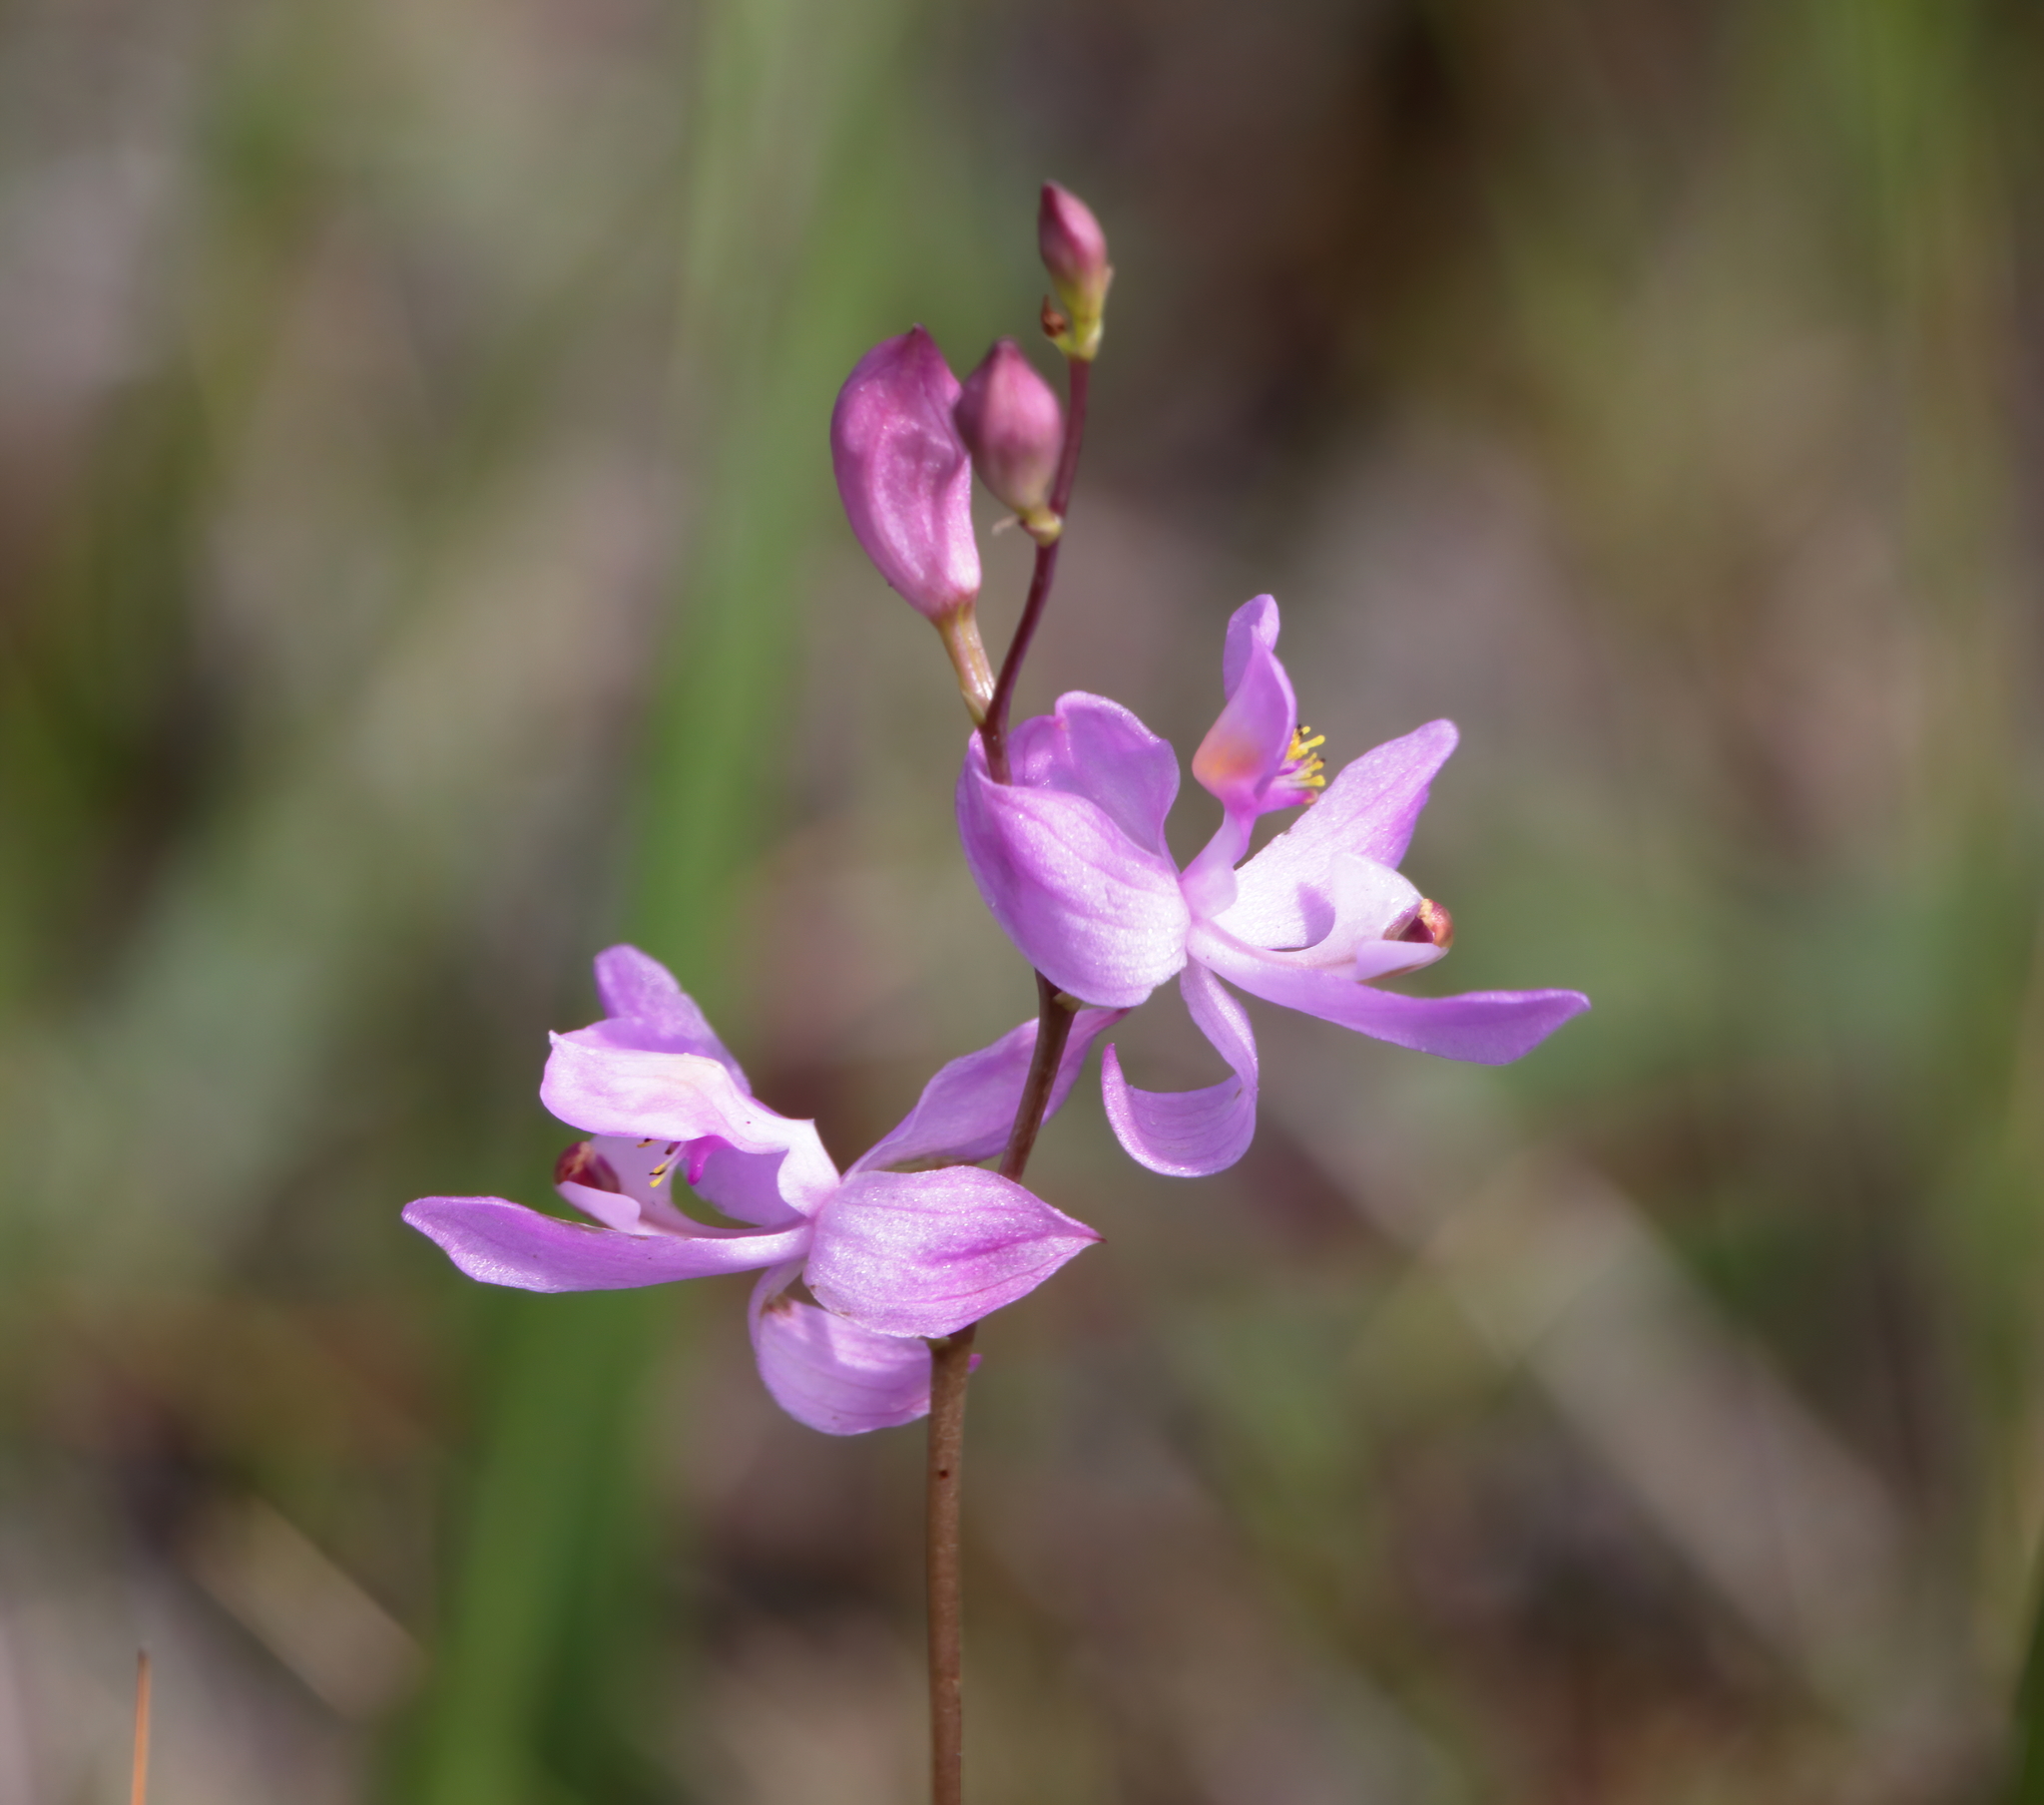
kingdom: Plantae
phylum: Tracheophyta
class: Liliopsida
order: Asparagales
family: Orchidaceae
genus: Calopogon
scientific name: Calopogon pallidus
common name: Pale grasspink
